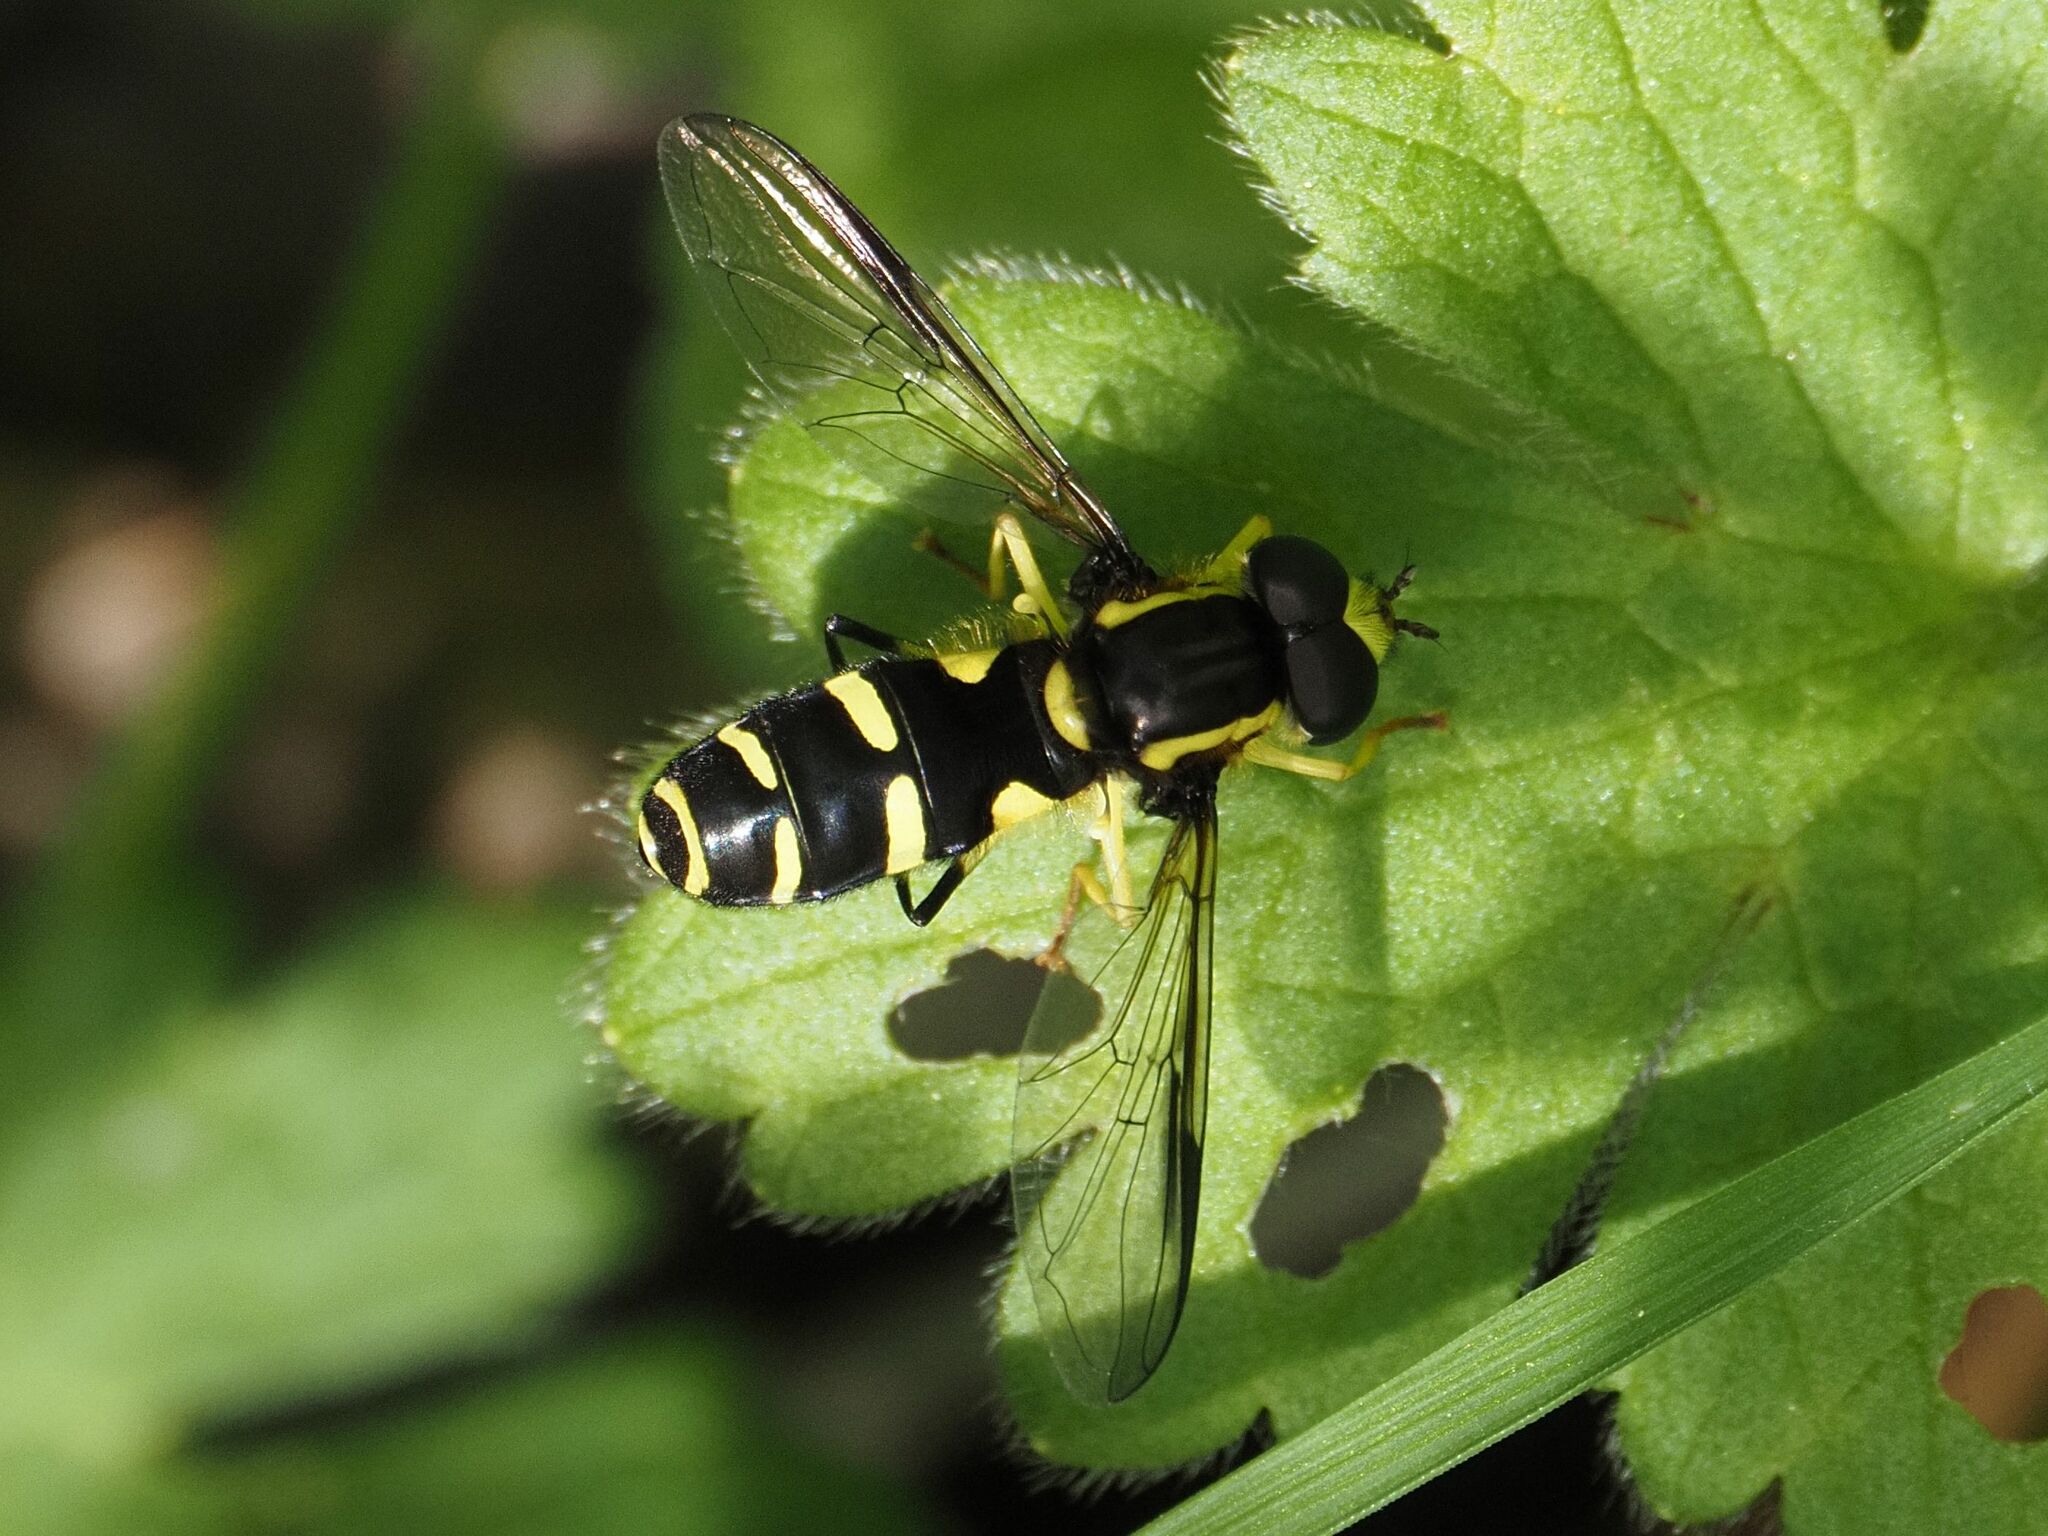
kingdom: Animalia
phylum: Arthropoda
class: Insecta
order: Diptera
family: Syrphidae
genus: Philhelius
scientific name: Philhelius dives
